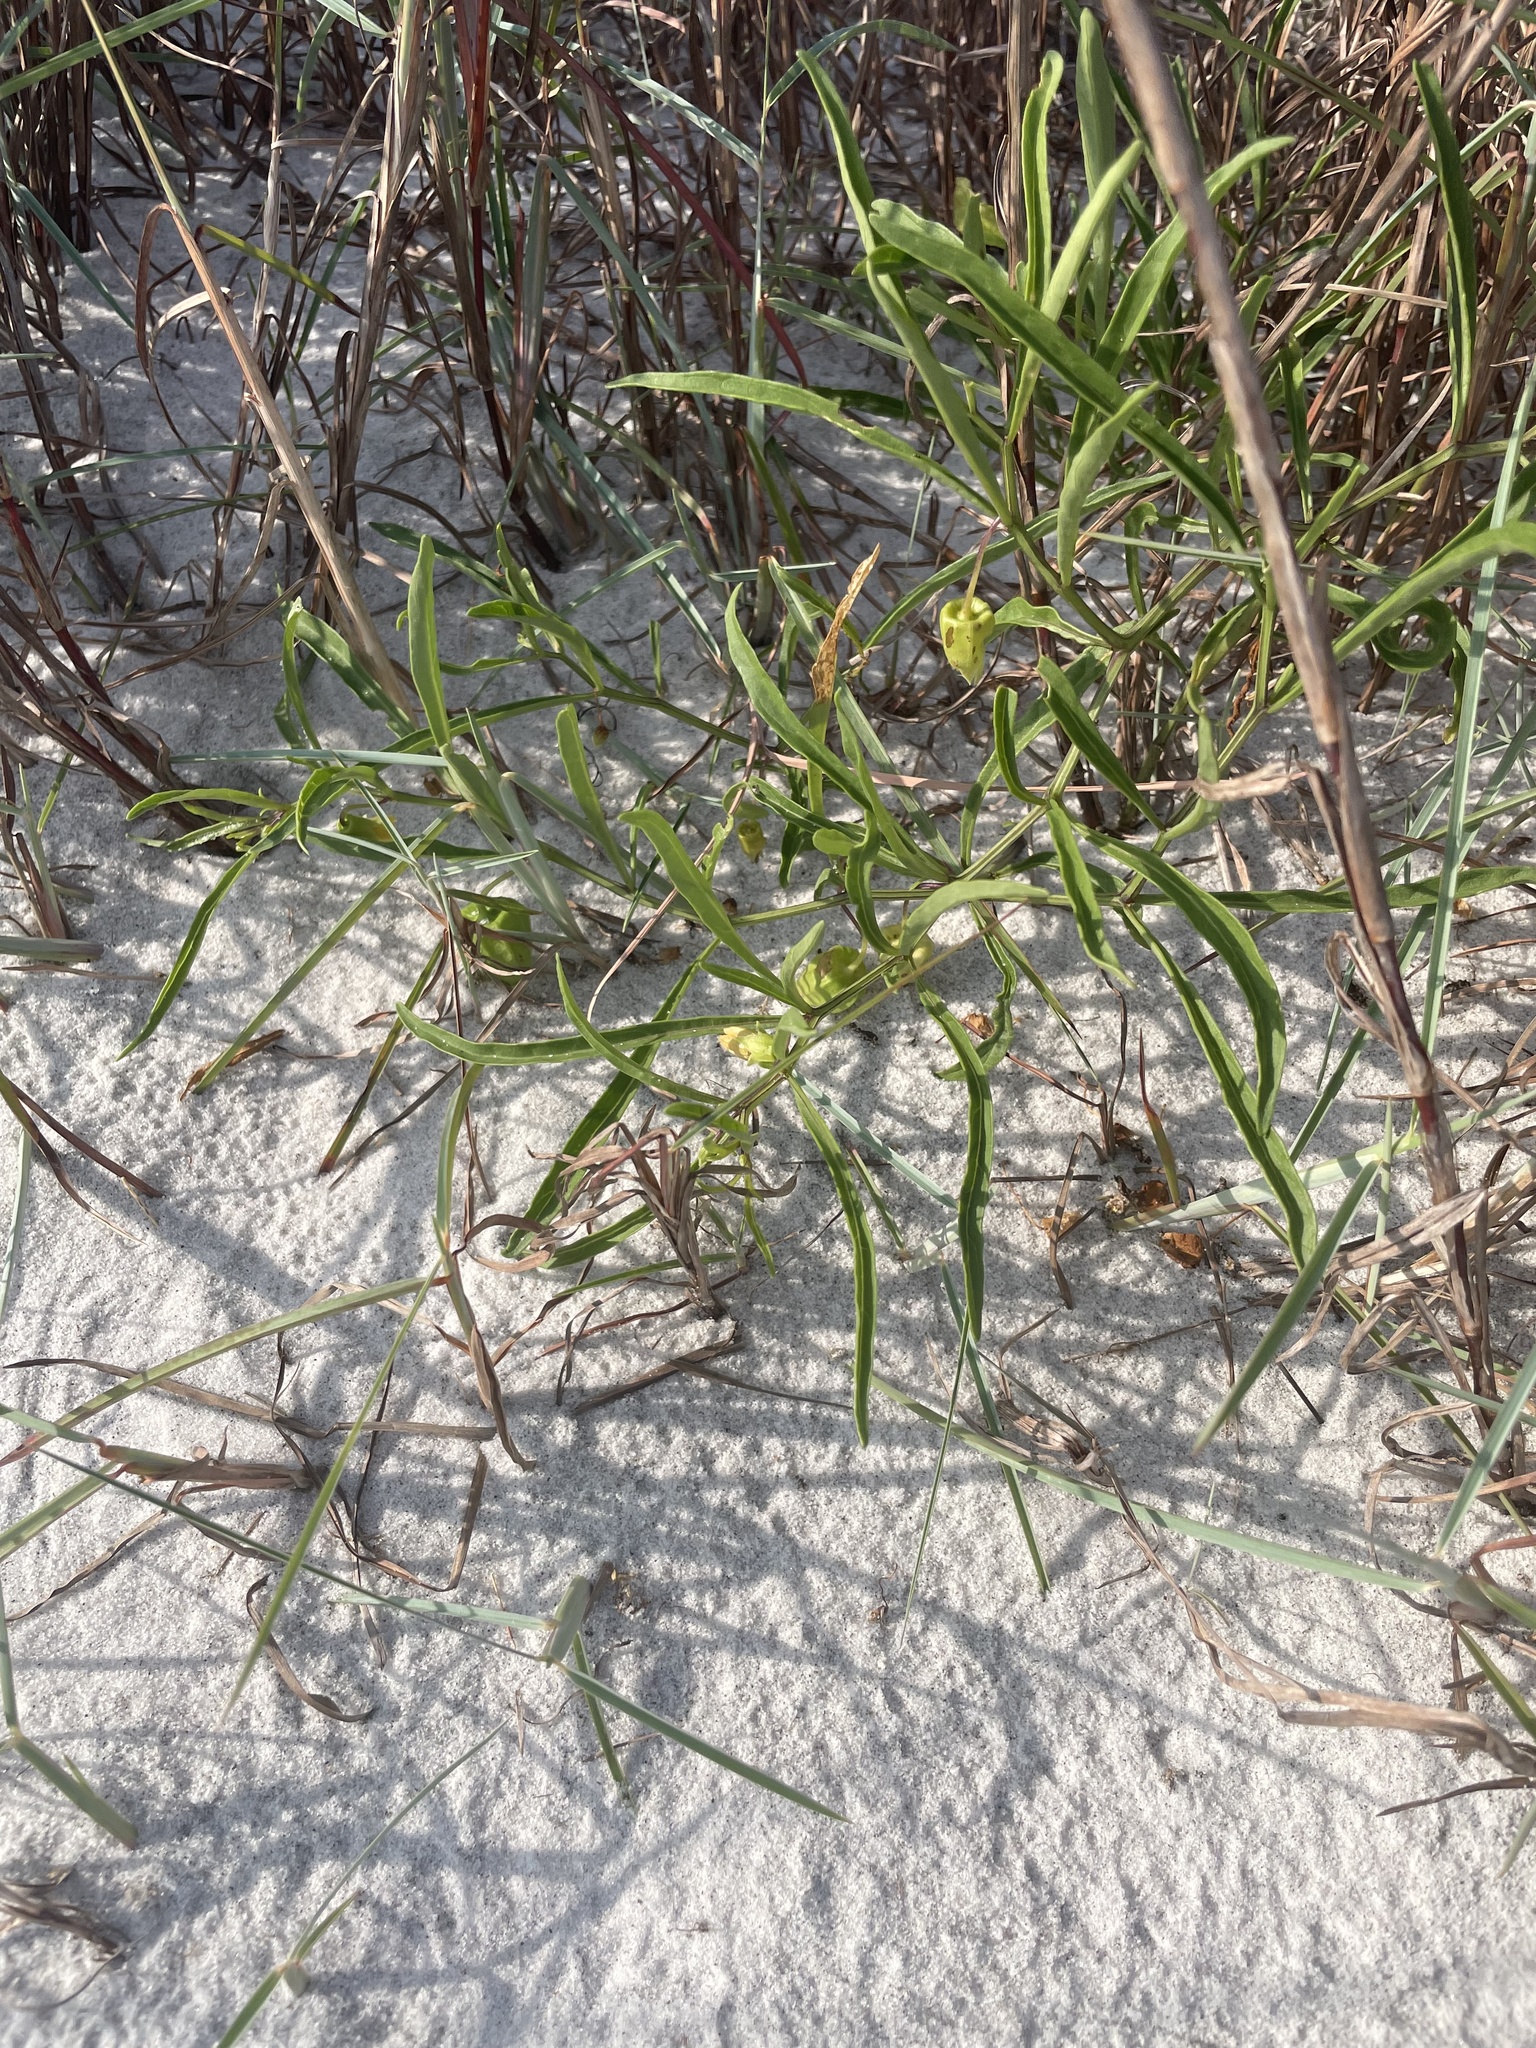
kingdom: Plantae
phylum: Tracheophyta
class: Magnoliopsida
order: Solanales
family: Solanaceae
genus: Physalis
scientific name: Physalis angustifolia
